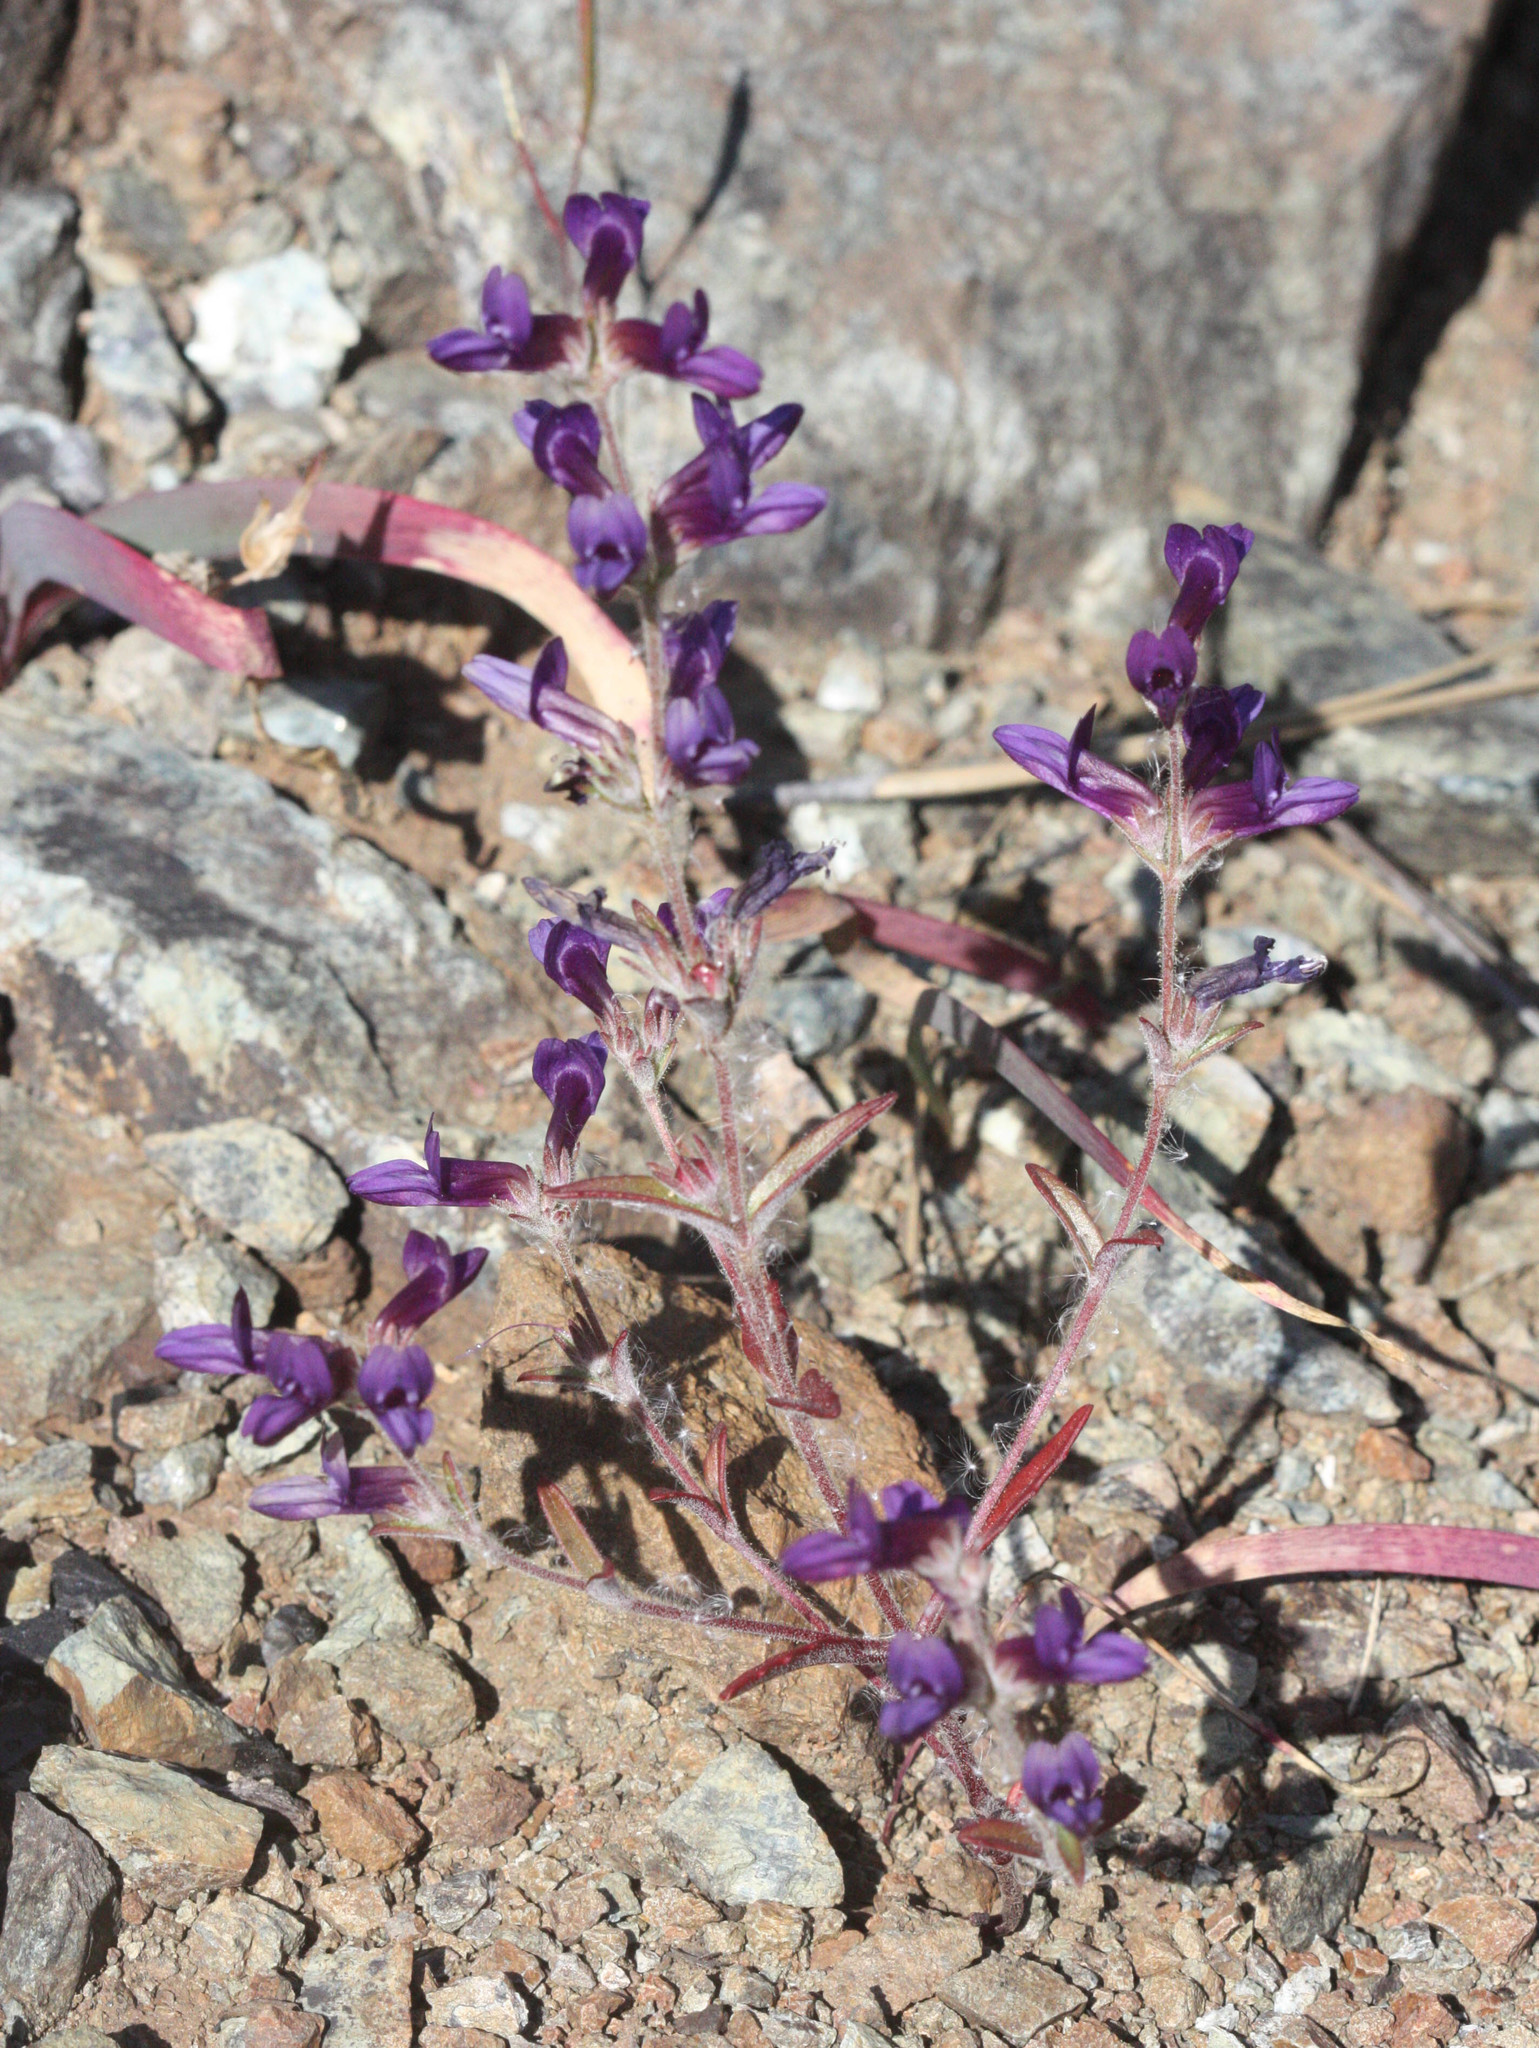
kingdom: Plantae
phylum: Tracheophyta
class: Magnoliopsida
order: Lamiales
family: Plantaginaceae
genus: Collinsia
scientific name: Collinsia greenei
